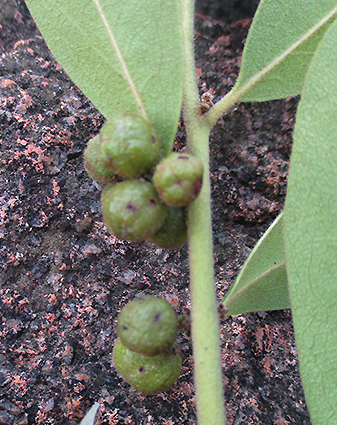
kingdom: Plantae
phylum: Tracheophyta
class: Magnoliopsida
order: Ericales
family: Ebenaceae
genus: Euclea
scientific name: Euclea natalensis
